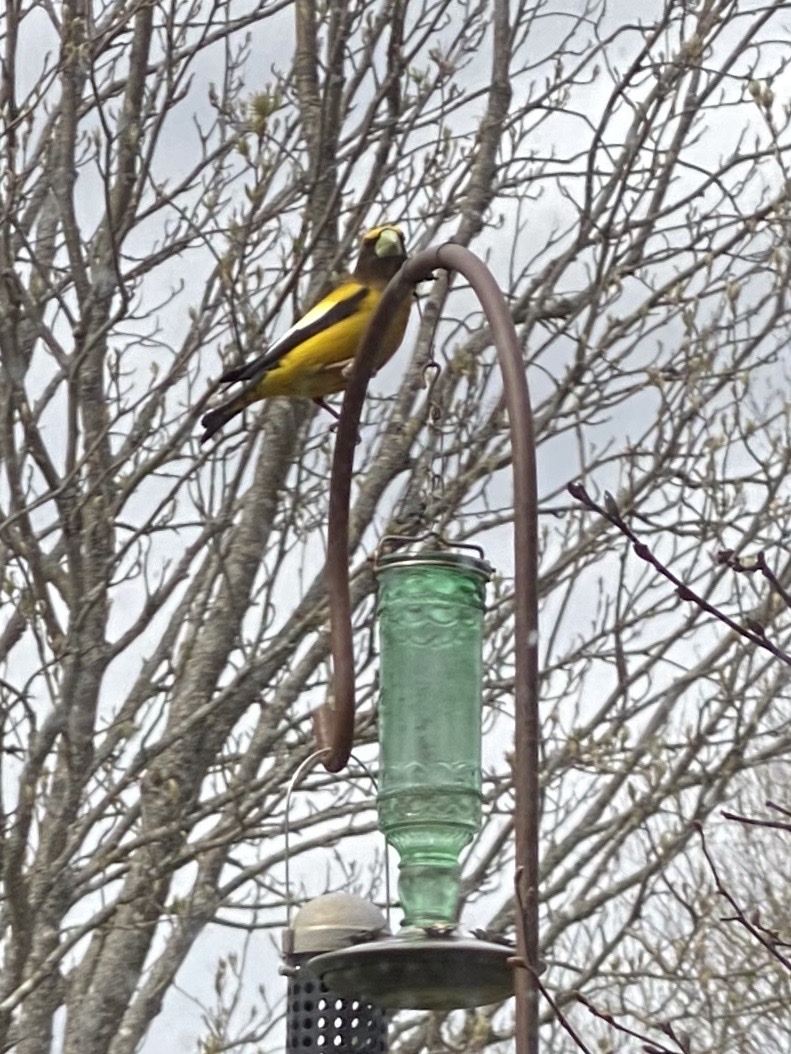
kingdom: Animalia
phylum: Chordata
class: Aves
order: Passeriformes
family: Fringillidae
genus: Hesperiphona
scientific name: Hesperiphona vespertina
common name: Evening grosbeak
